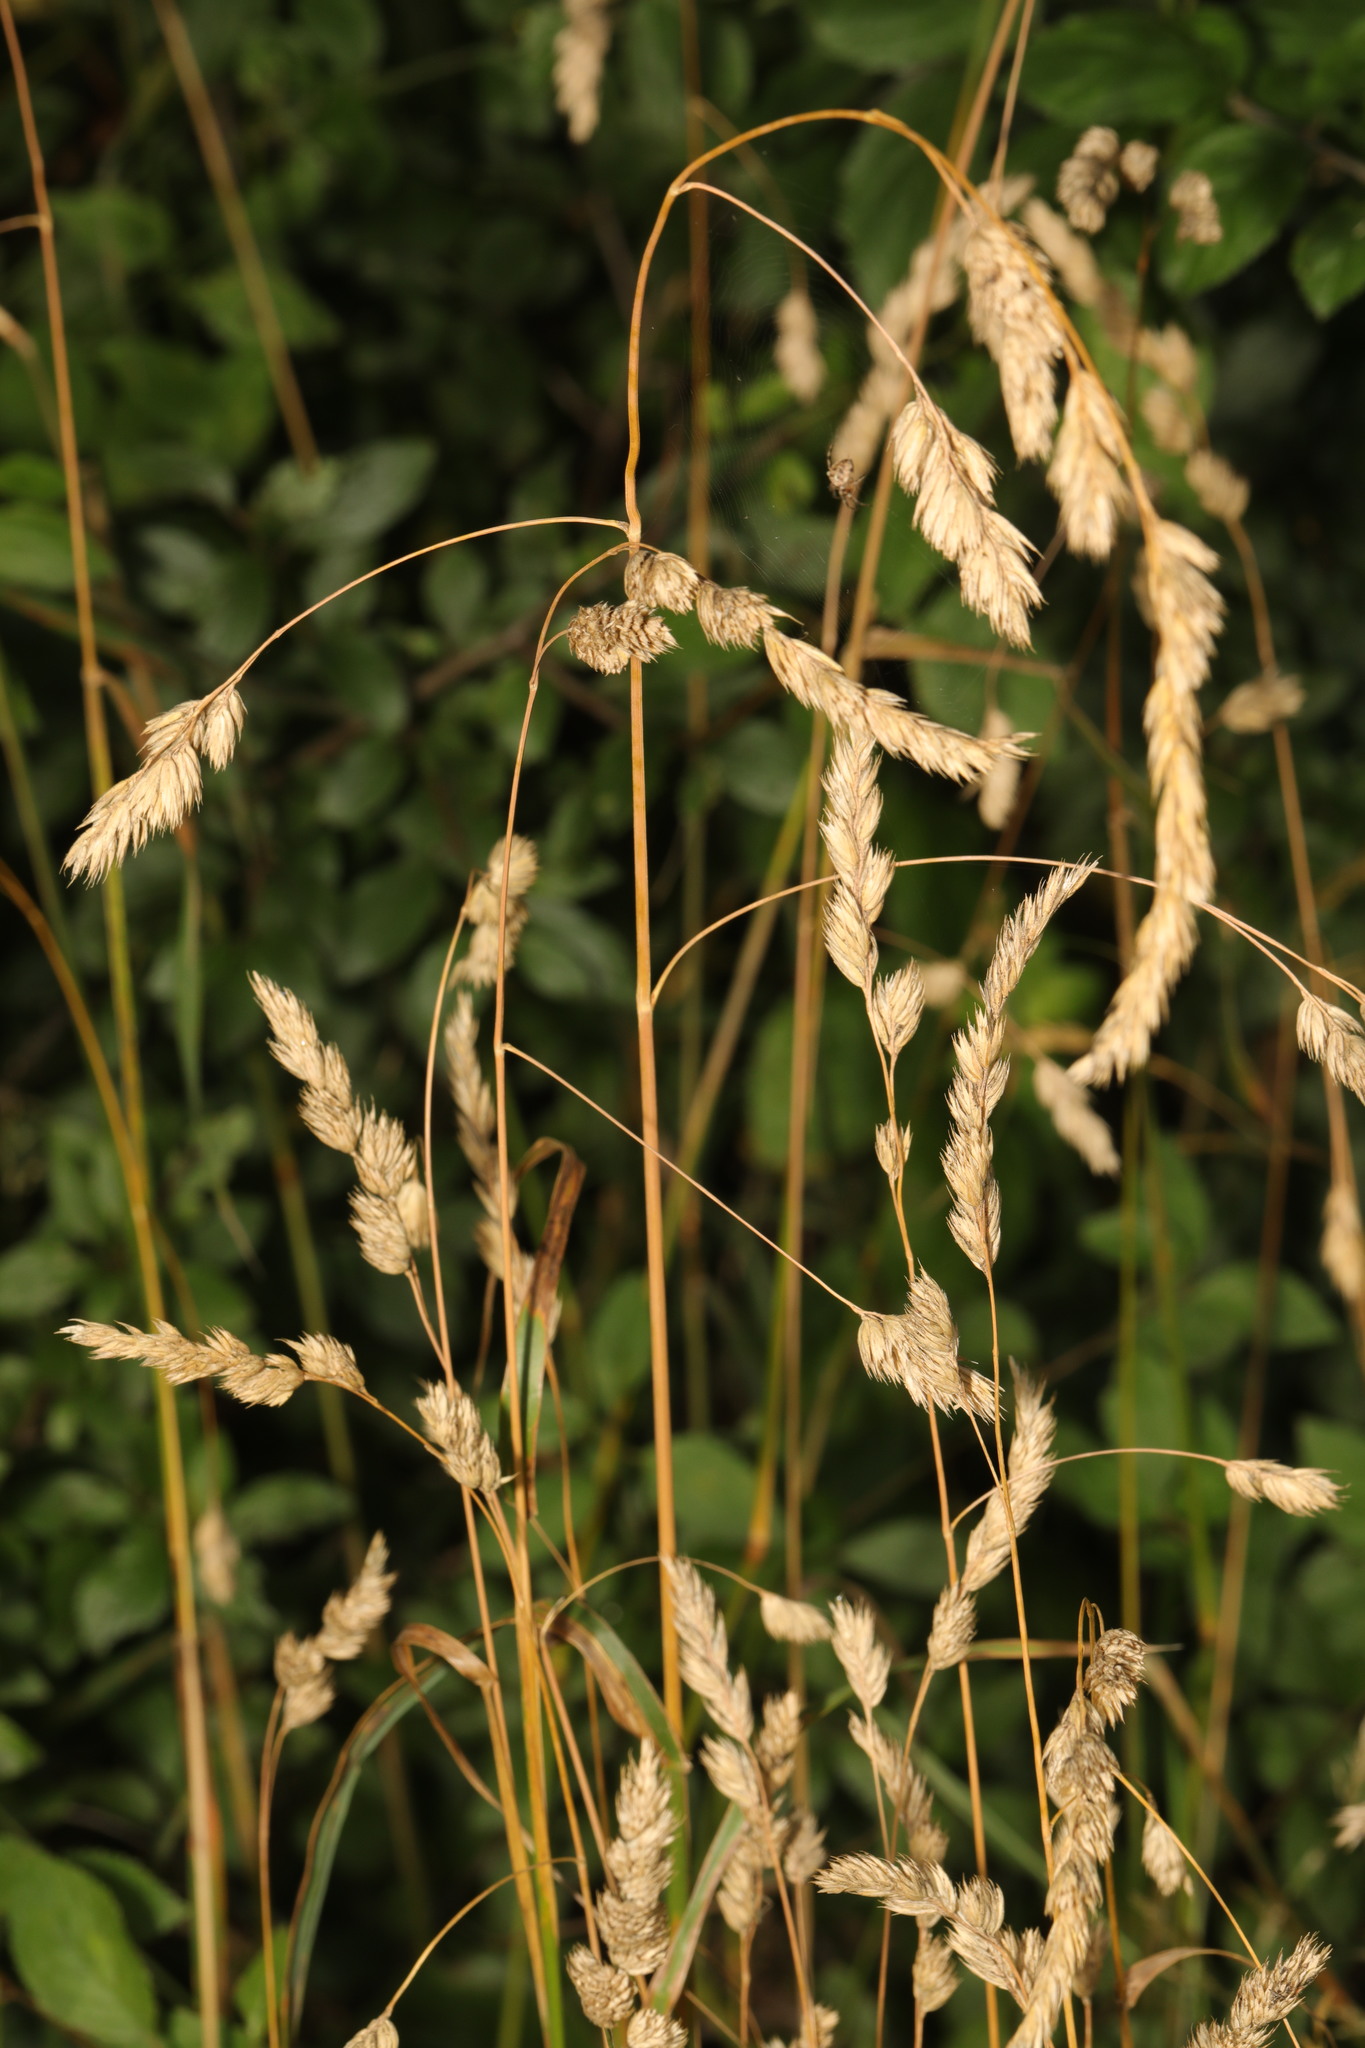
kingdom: Plantae
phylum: Tracheophyta
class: Liliopsida
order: Poales
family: Poaceae
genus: Dactylis
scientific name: Dactylis glomerata
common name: Orchardgrass
